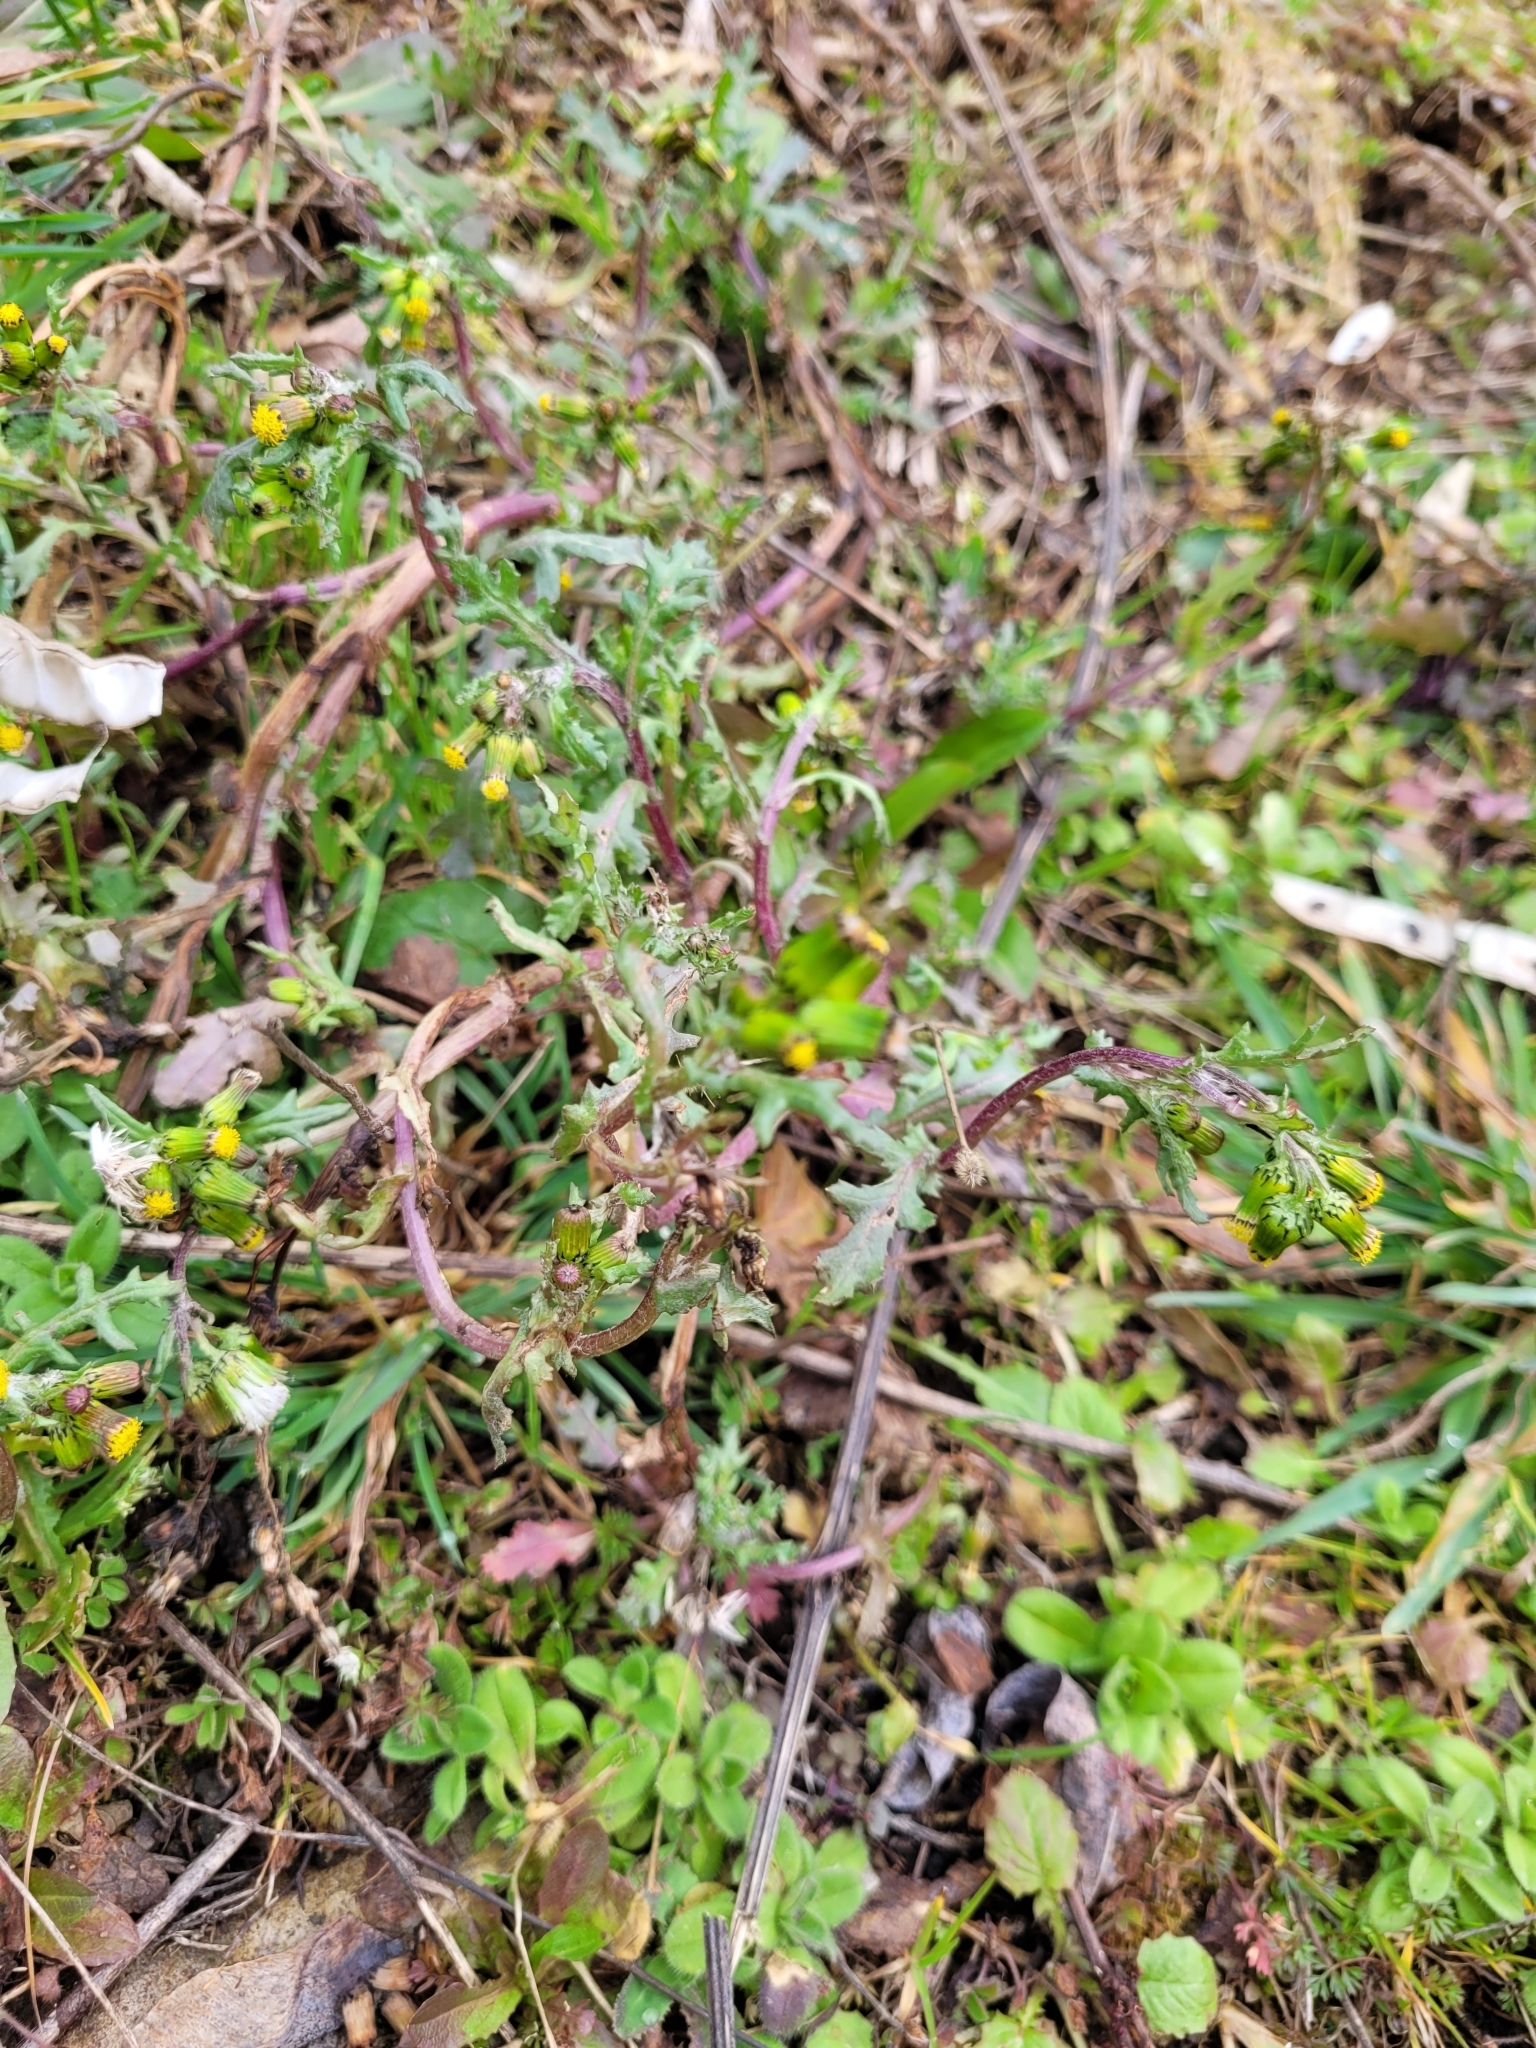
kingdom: Plantae
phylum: Tracheophyta
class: Magnoliopsida
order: Asterales
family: Asteraceae
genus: Senecio
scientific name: Senecio vulgaris
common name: Old-man-in-the-spring
